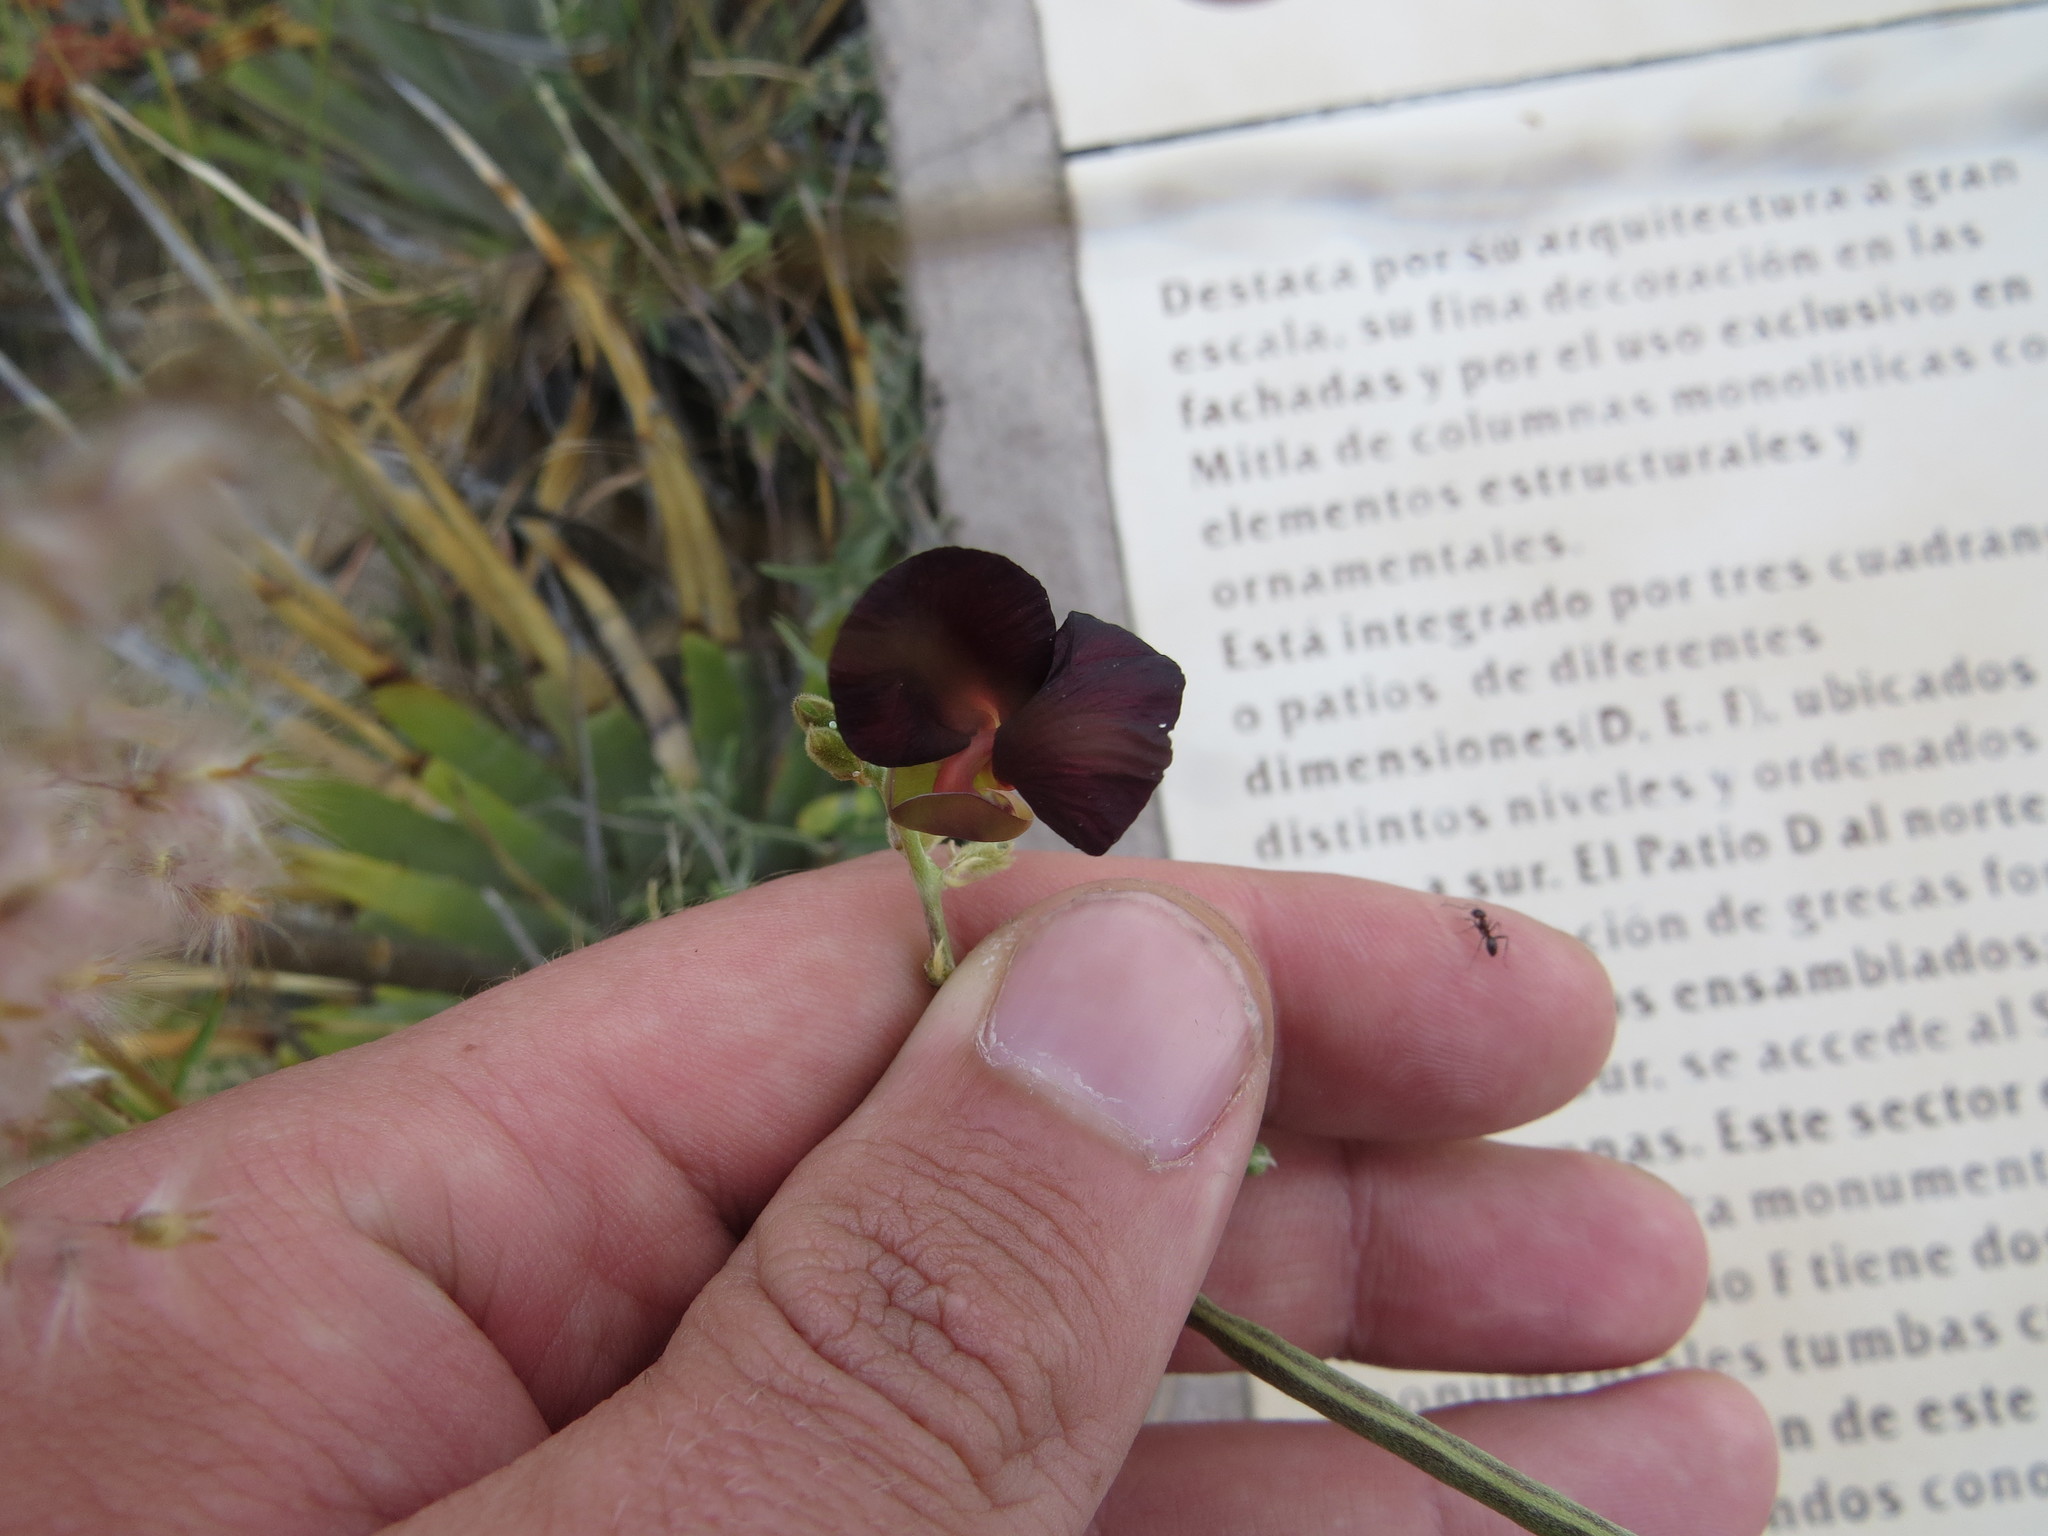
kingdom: Plantae
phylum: Tracheophyta
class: Magnoliopsida
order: Fabales
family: Fabaceae
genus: Macroptilium
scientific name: Macroptilium atropurpureum
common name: Purple bushbean
